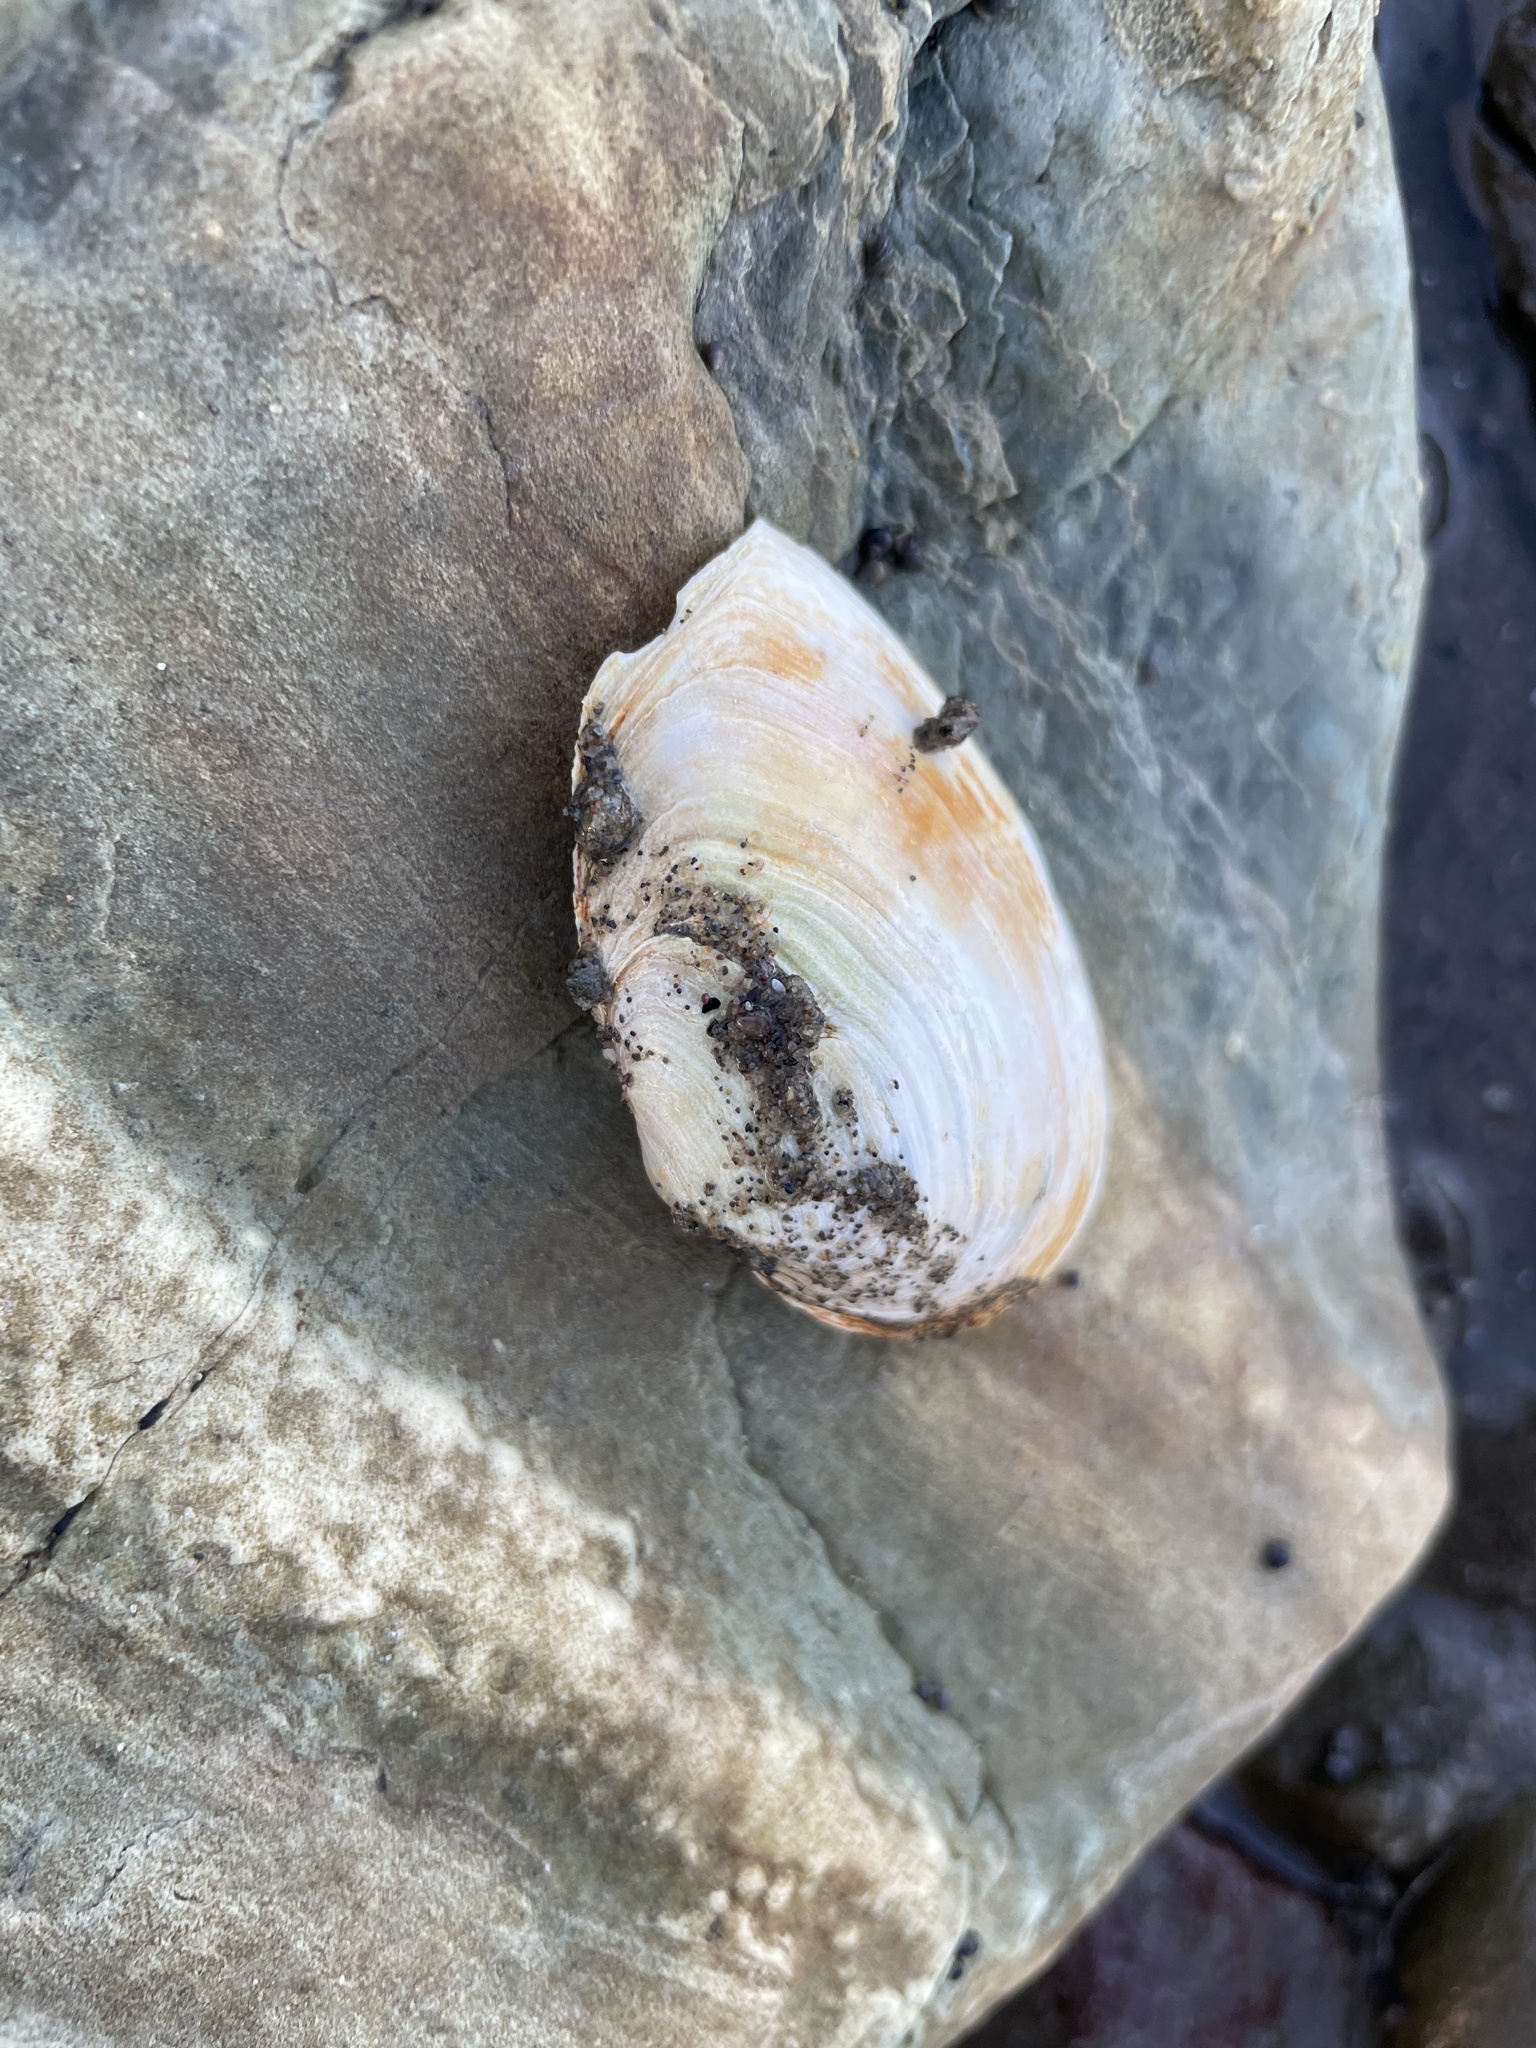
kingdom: Animalia
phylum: Mollusca
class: Bivalvia
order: Myida
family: Myidae
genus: Mya
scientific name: Mya arenaria
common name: Soft-shelled clam
